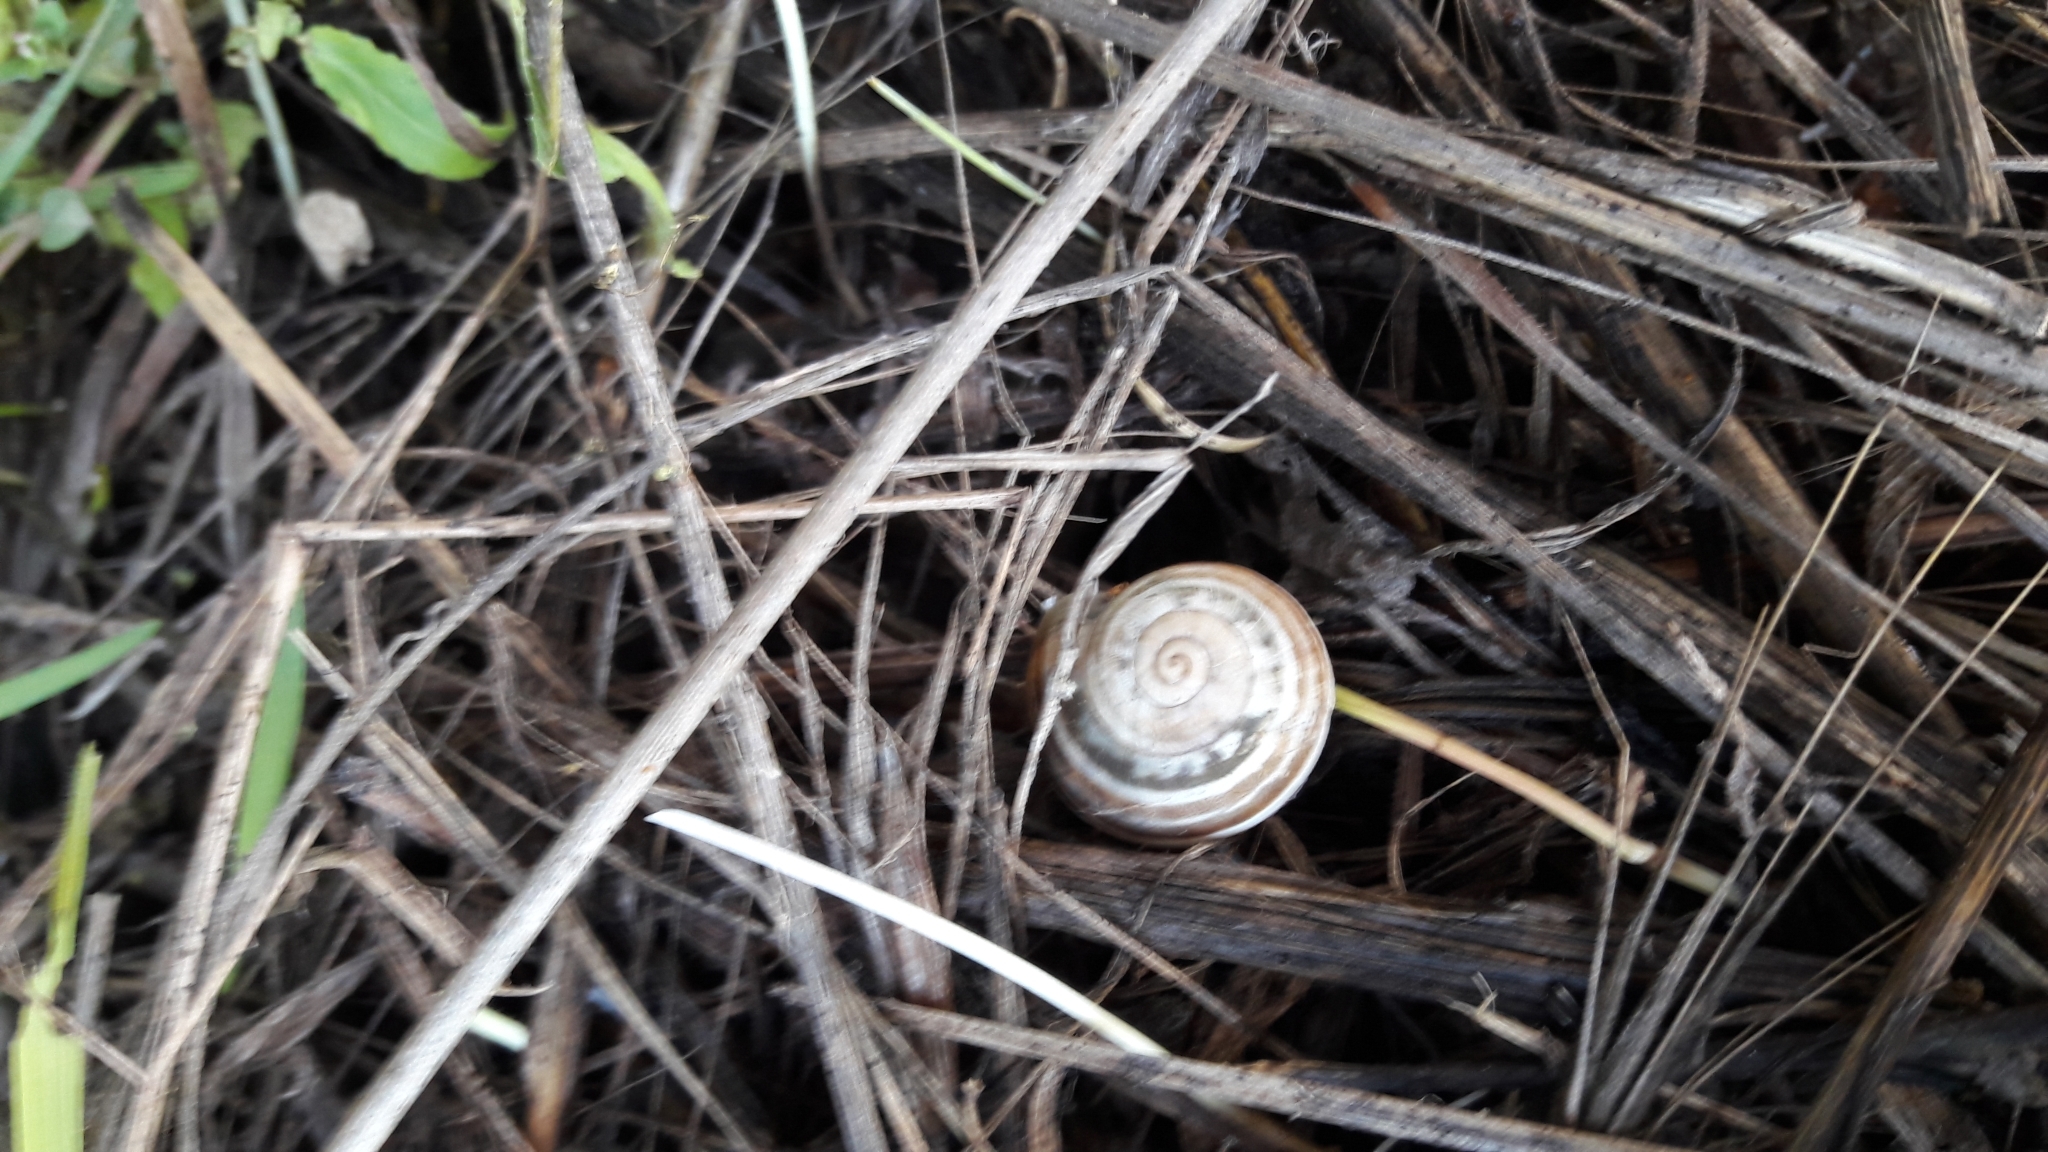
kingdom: Animalia
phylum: Mollusca
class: Gastropoda
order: Stylommatophora
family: Helicidae
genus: Eobania
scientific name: Eobania vermiculata
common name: Chocolateband snail
